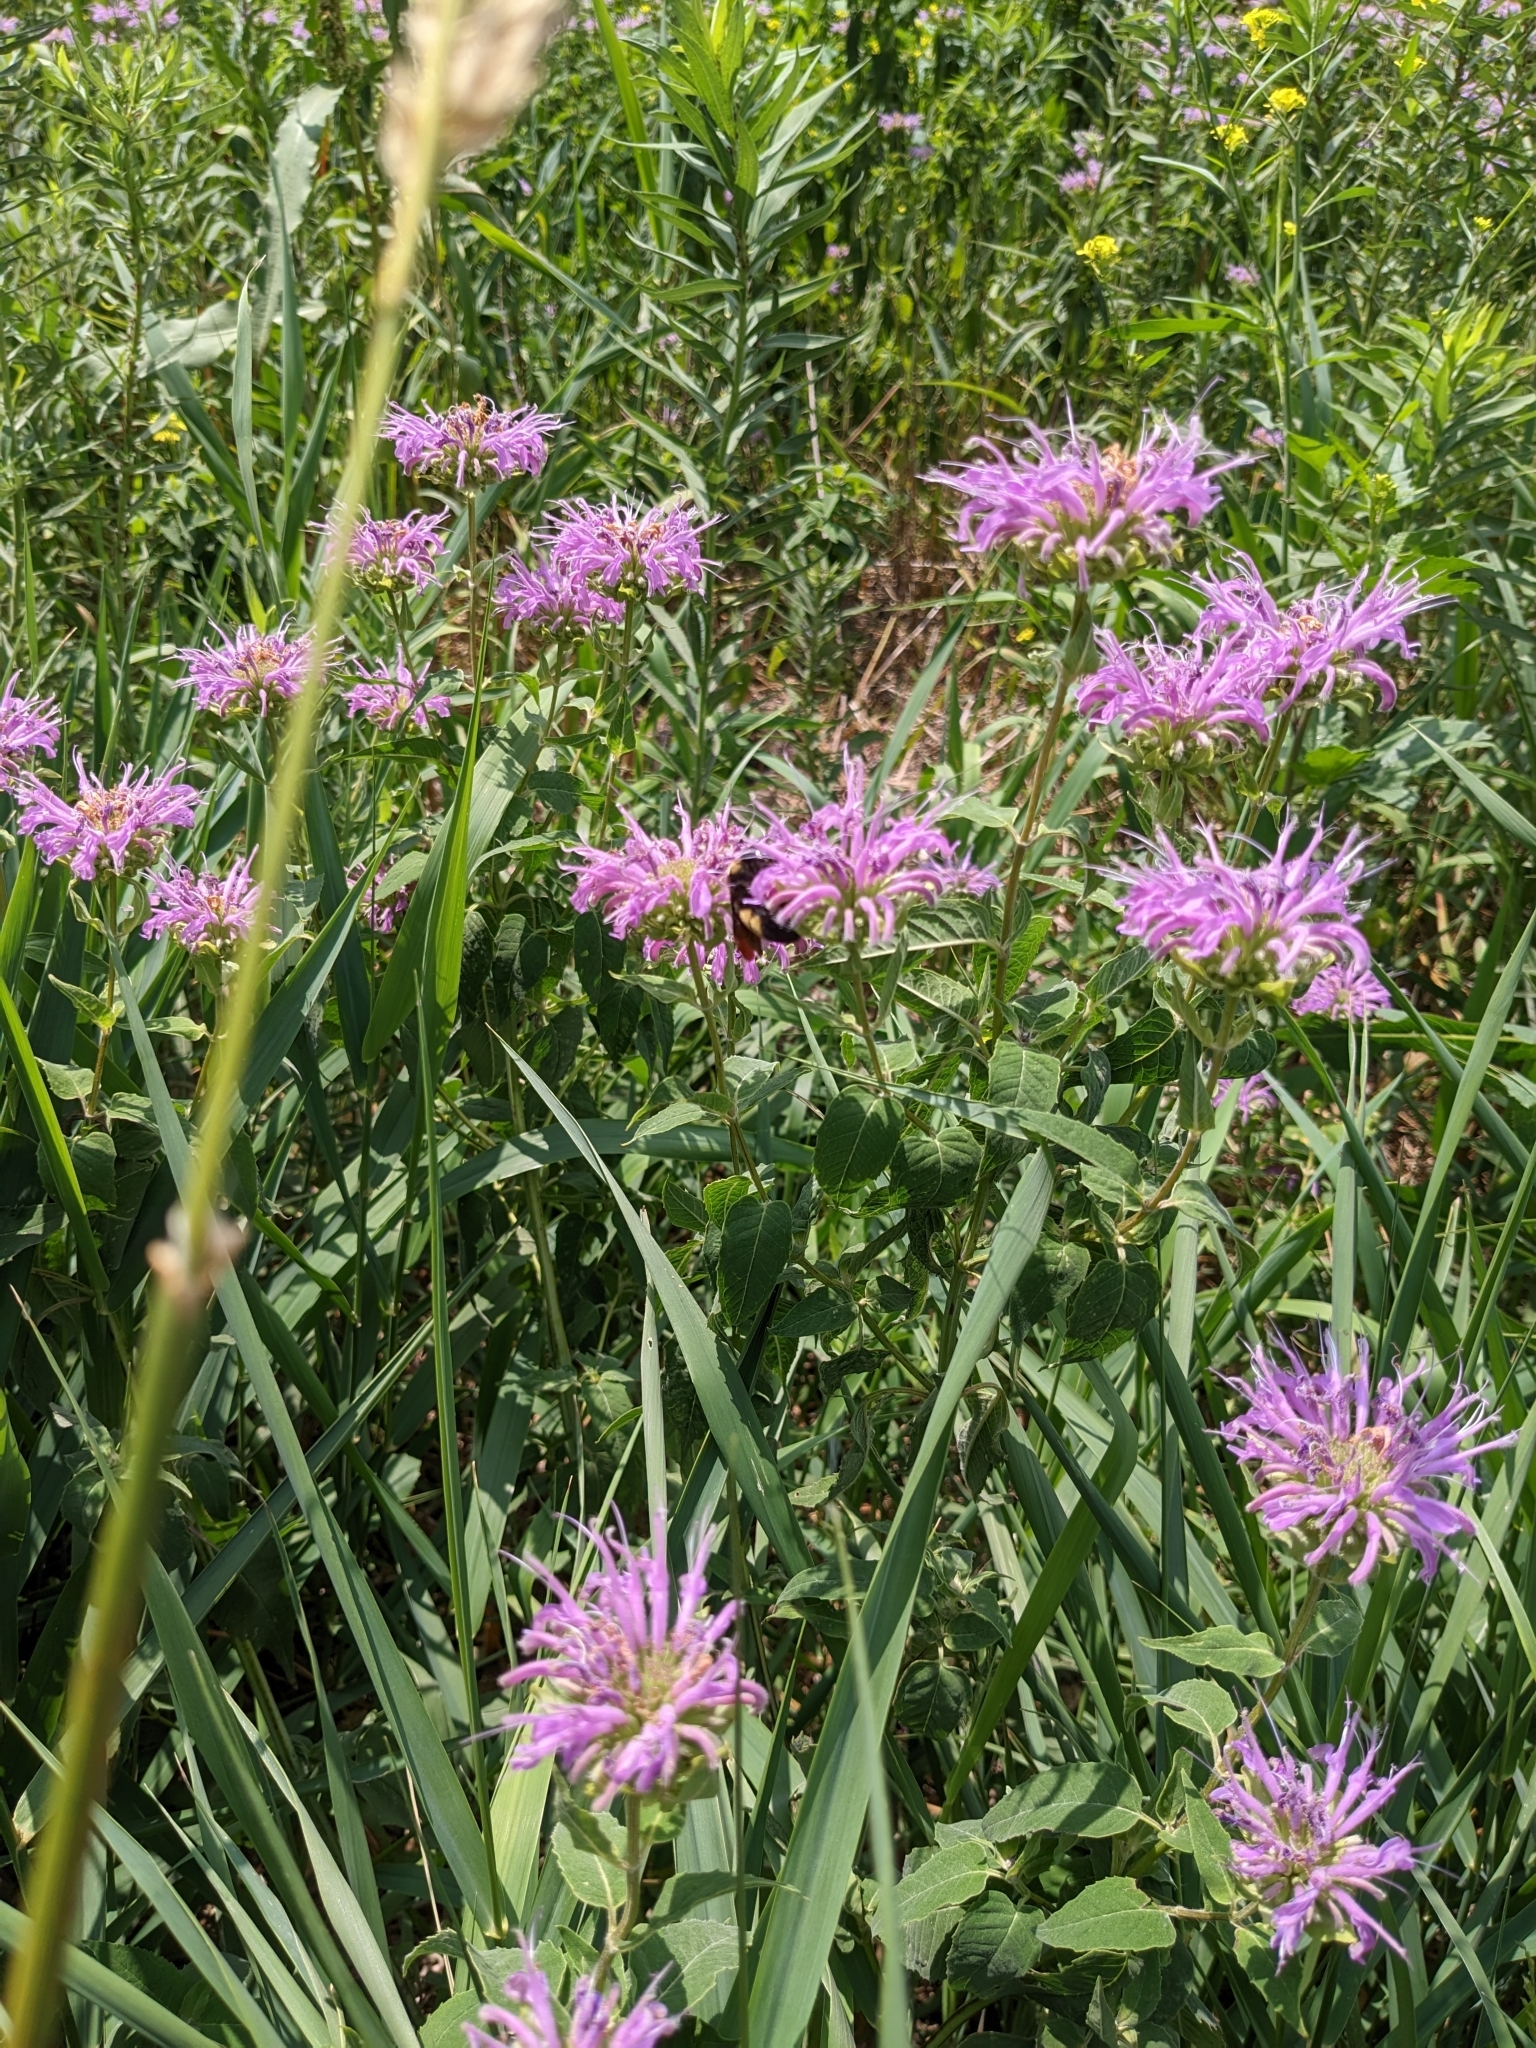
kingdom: Animalia
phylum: Arthropoda
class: Insecta
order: Hymenoptera
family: Apidae
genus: Bombus
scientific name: Bombus auricomus
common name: Black and gold bumble bee
